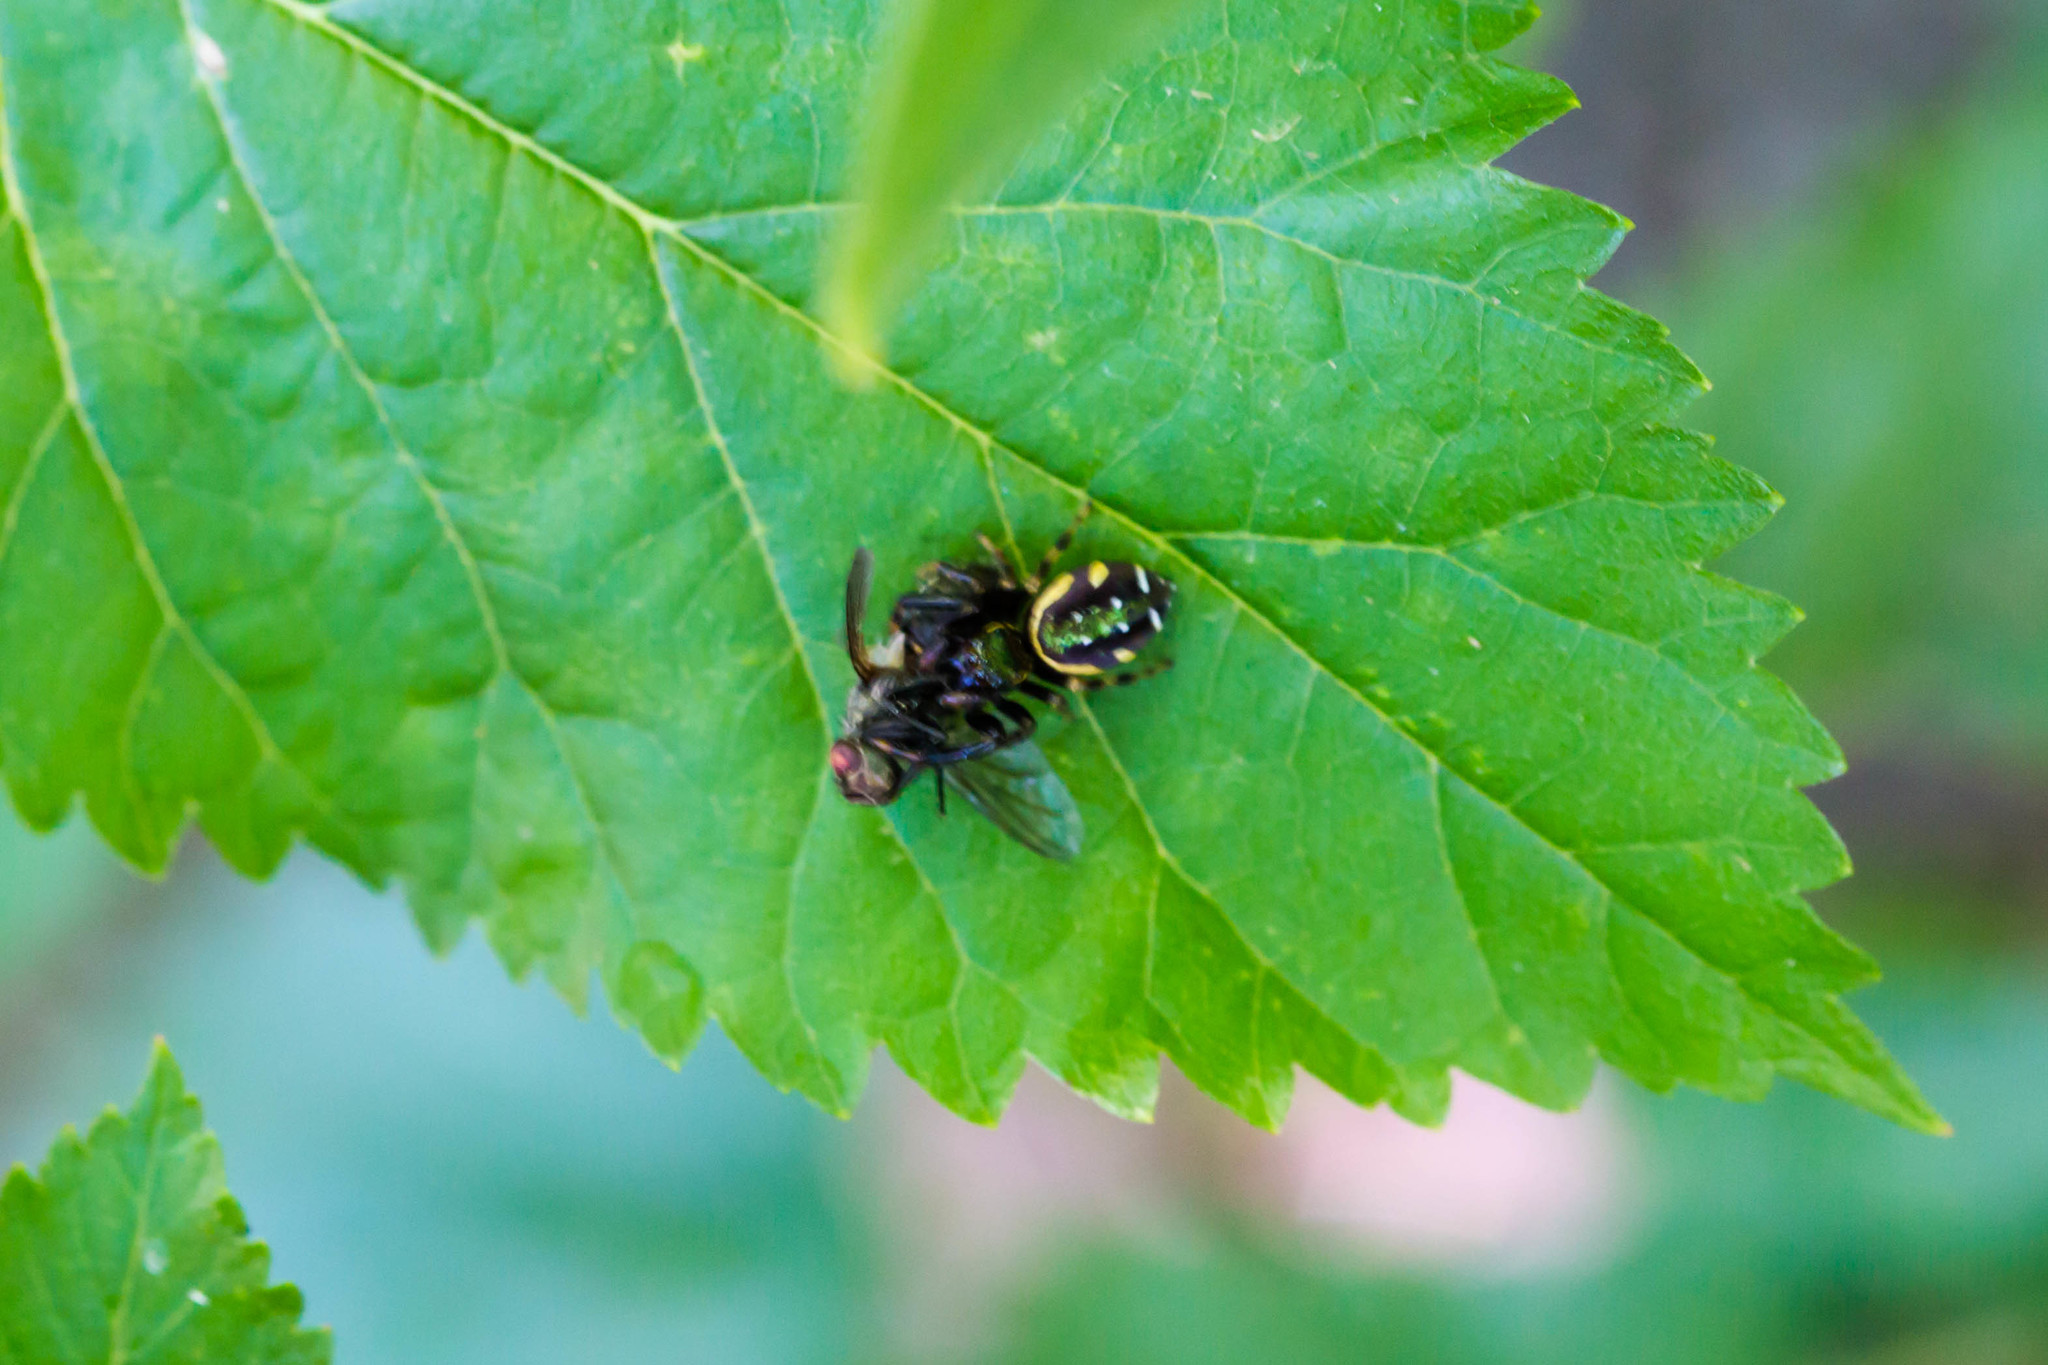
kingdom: Animalia
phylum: Arthropoda
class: Arachnida
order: Araneae
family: Salticidae
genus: Paraphidippus
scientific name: Paraphidippus aurantius
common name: Jumping spiders
